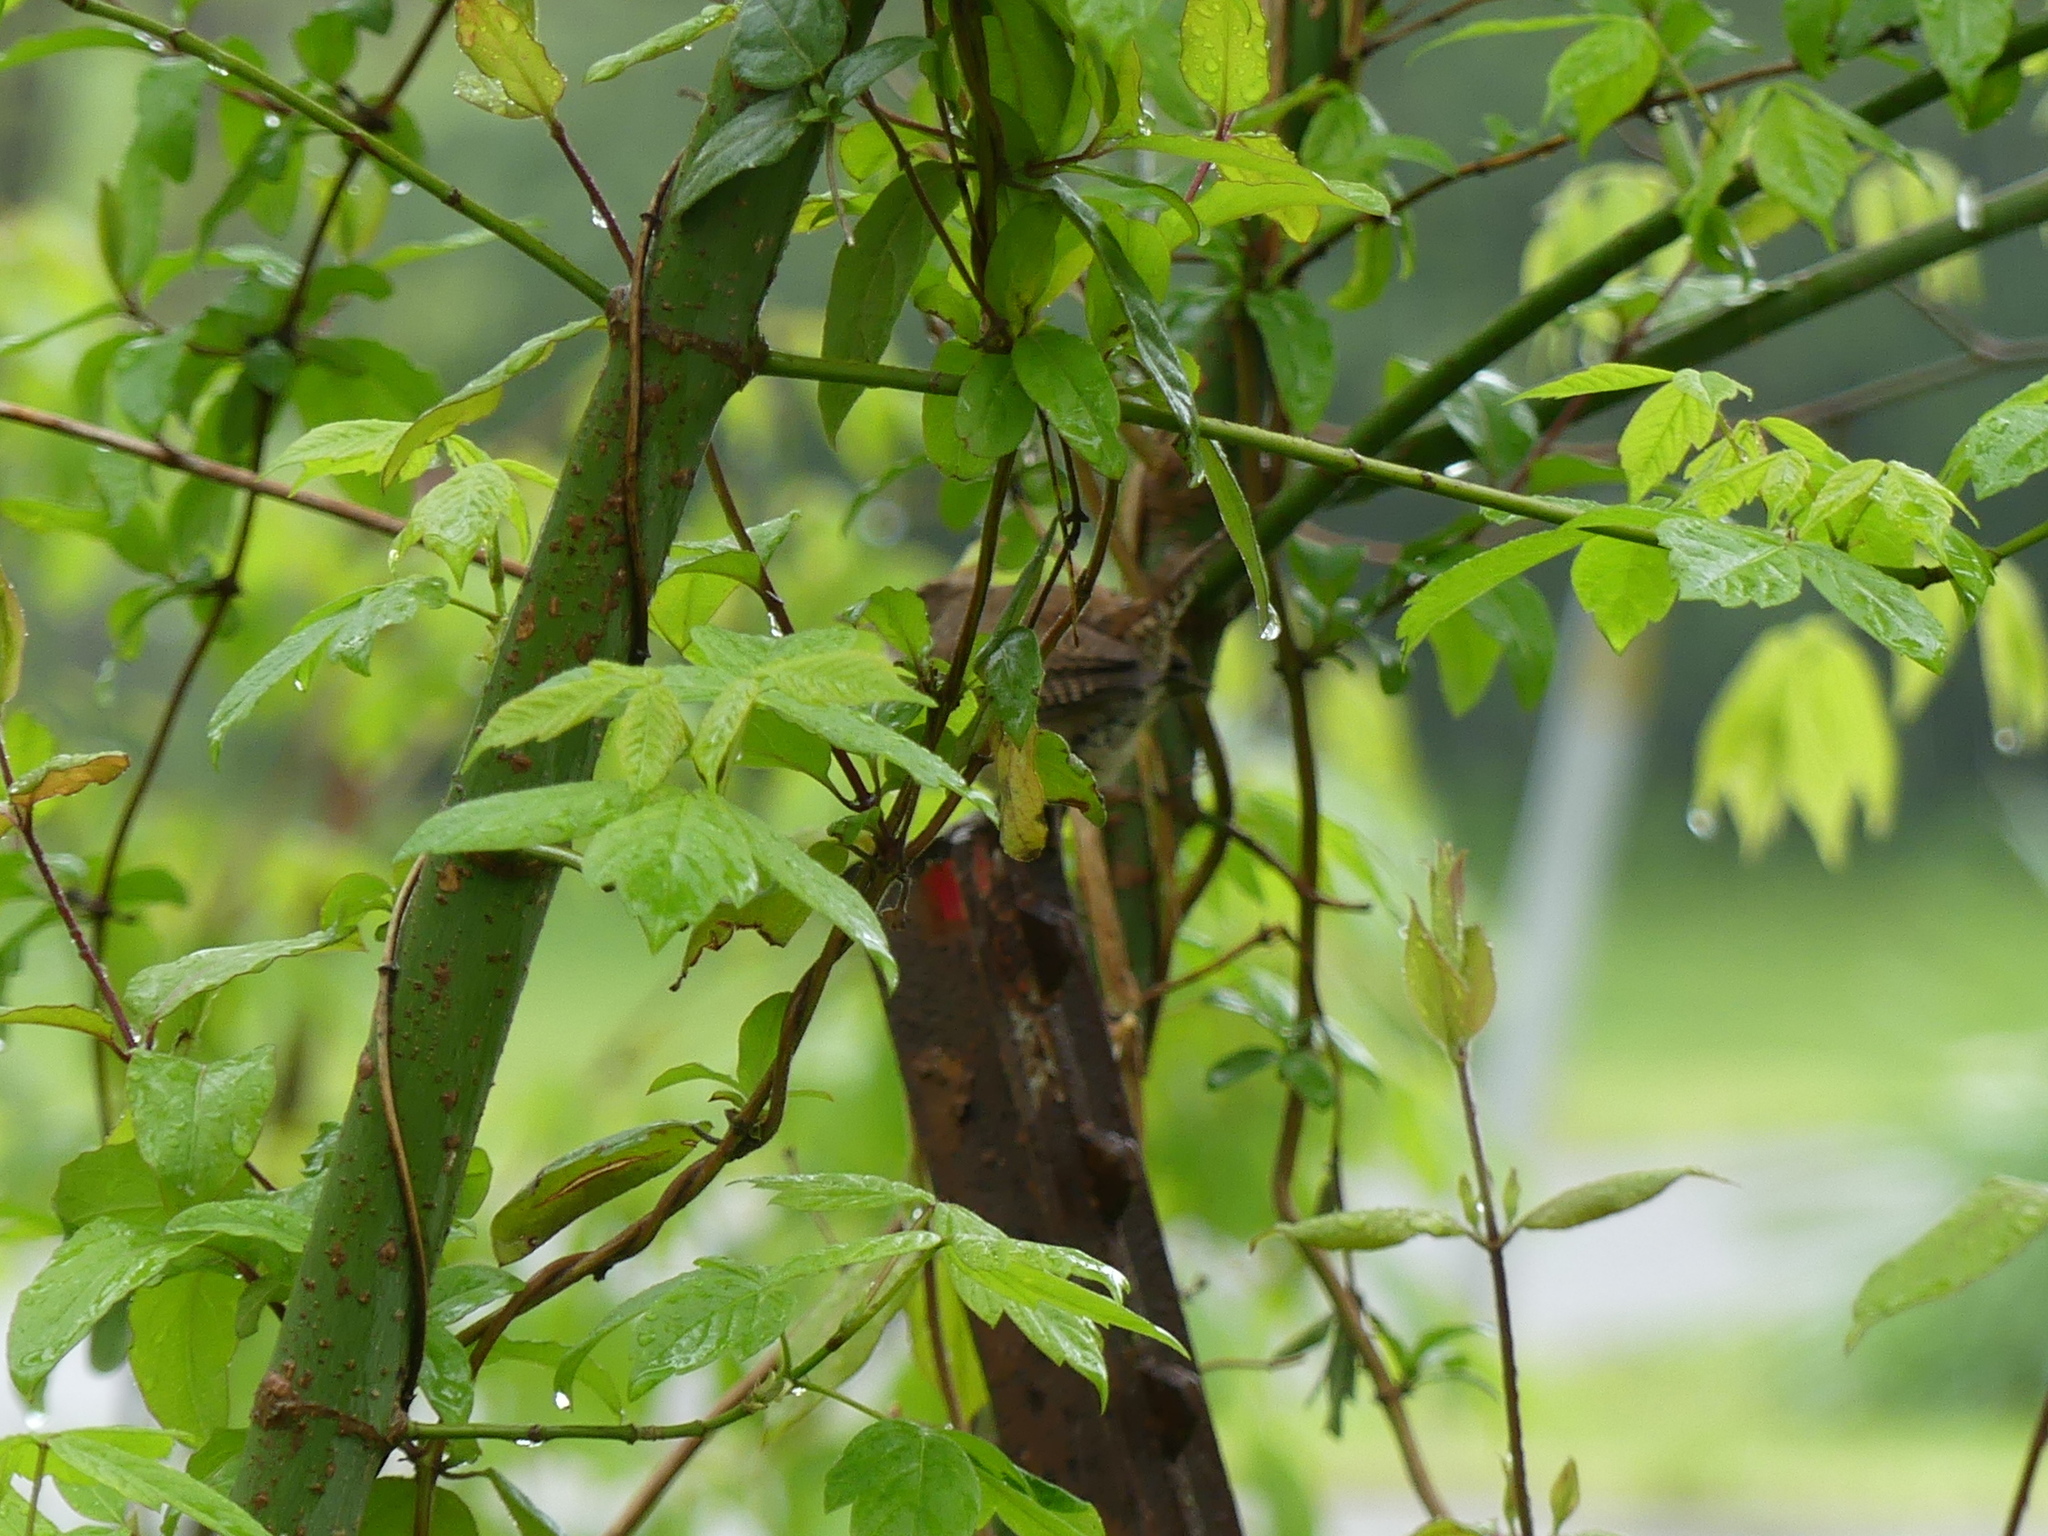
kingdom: Animalia
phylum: Chordata
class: Aves
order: Passeriformes
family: Troglodytidae
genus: Troglodytes
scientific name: Troglodytes aedon
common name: House wren
